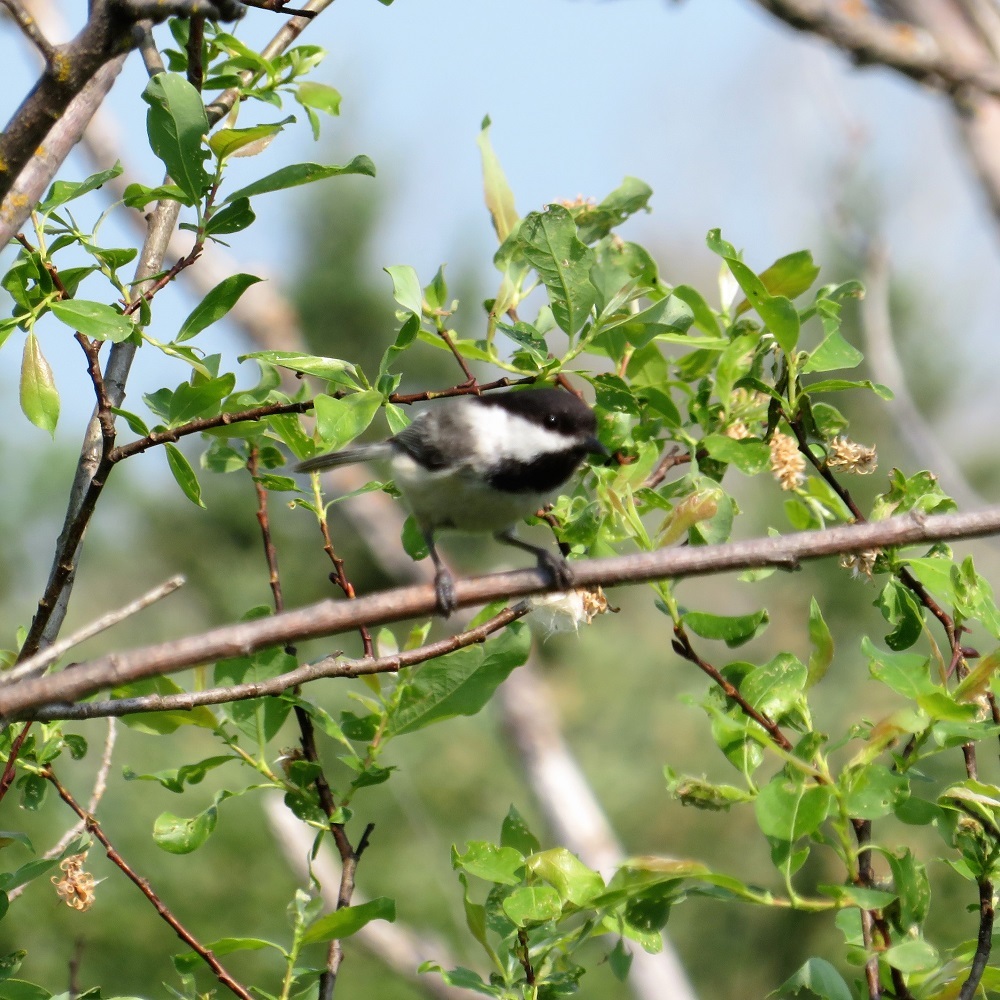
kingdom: Animalia
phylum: Chordata
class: Aves
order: Passeriformes
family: Paridae
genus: Poecile
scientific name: Poecile atricapillus
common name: Black-capped chickadee
